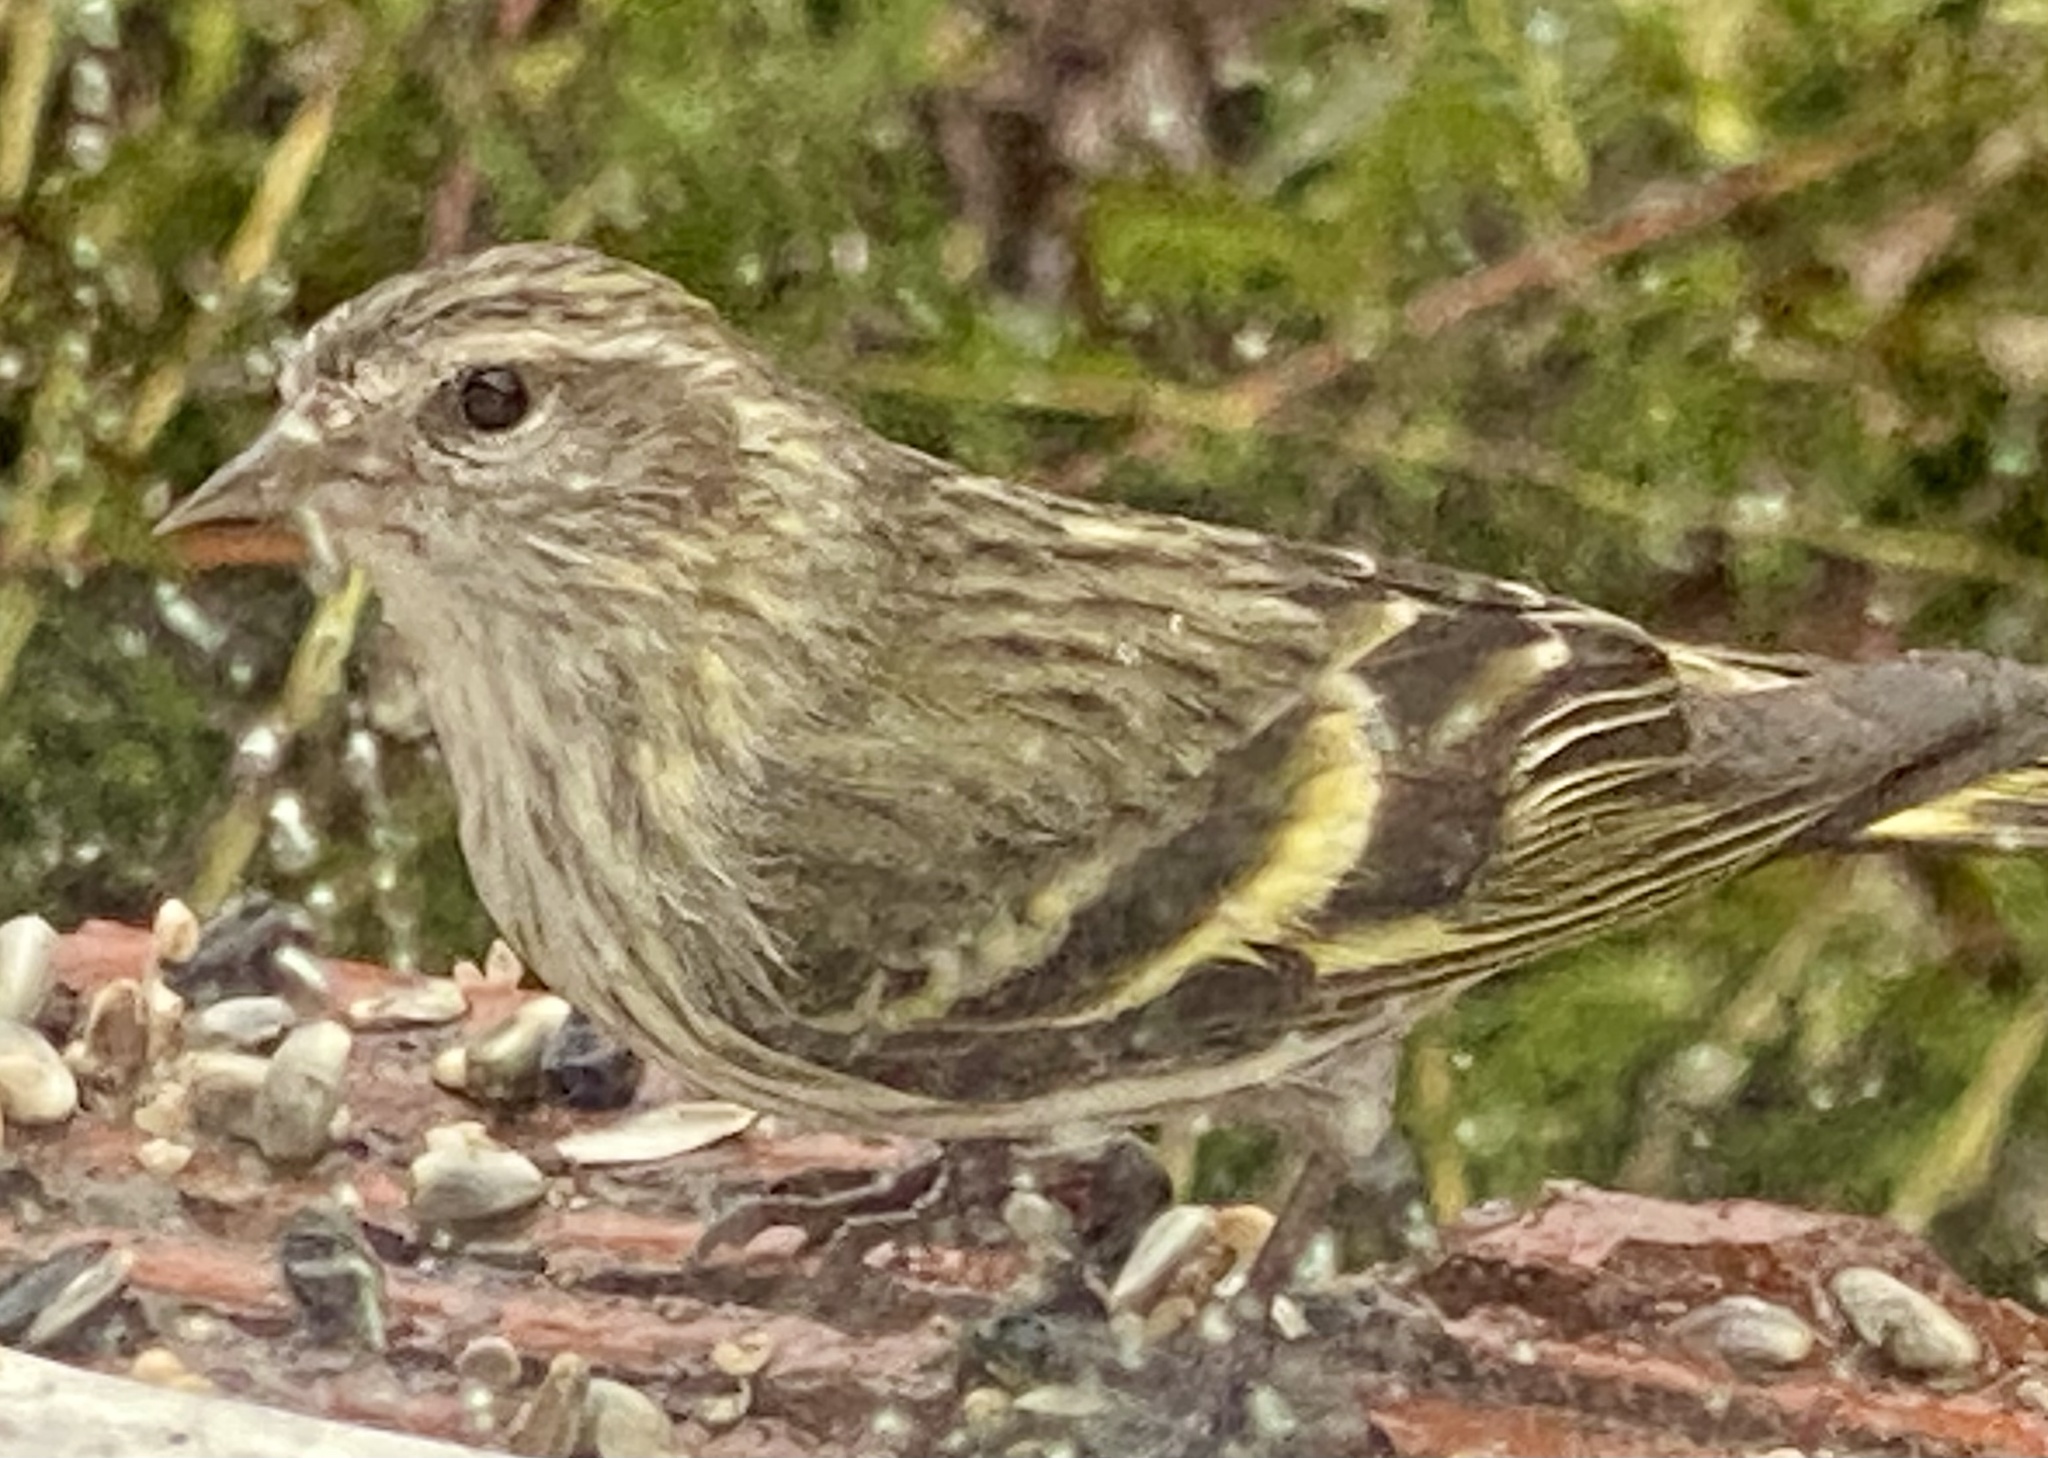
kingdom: Animalia
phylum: Chordata
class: Aves
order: Passeriformes
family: Fringillidae
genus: Spinus
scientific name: Spinus pinus
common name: Pine siskin
